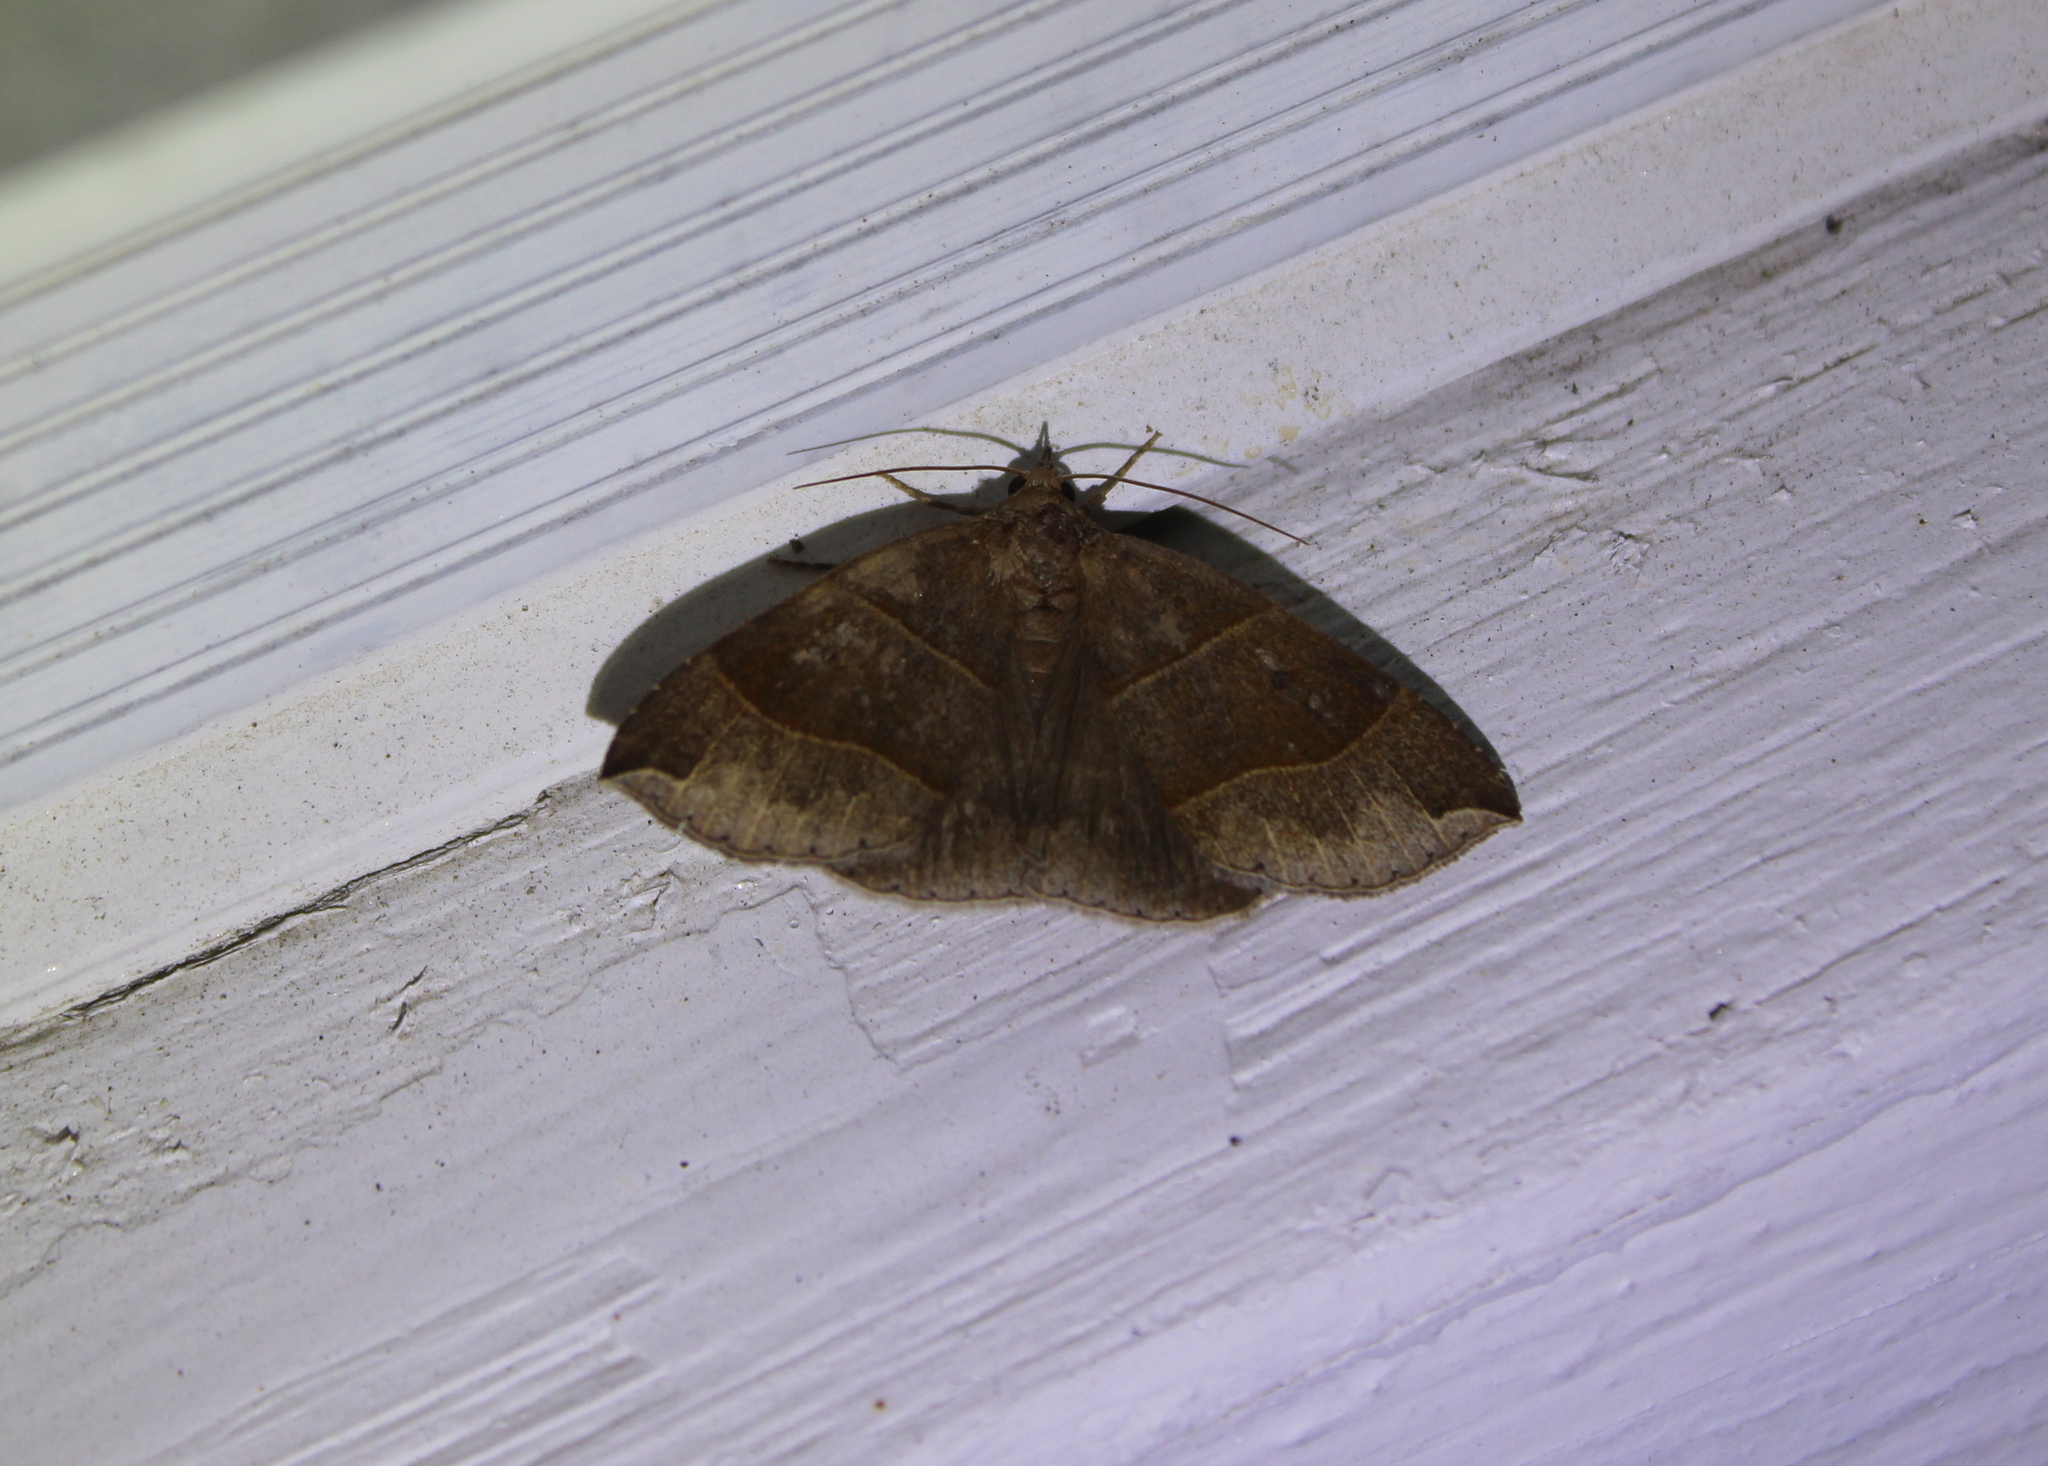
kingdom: Animalia
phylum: Arthropoda
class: Insecta
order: Lepidoptera
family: Erebidae
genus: Parallelia
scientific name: Parallelia bistriaris
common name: Maple looper moth
